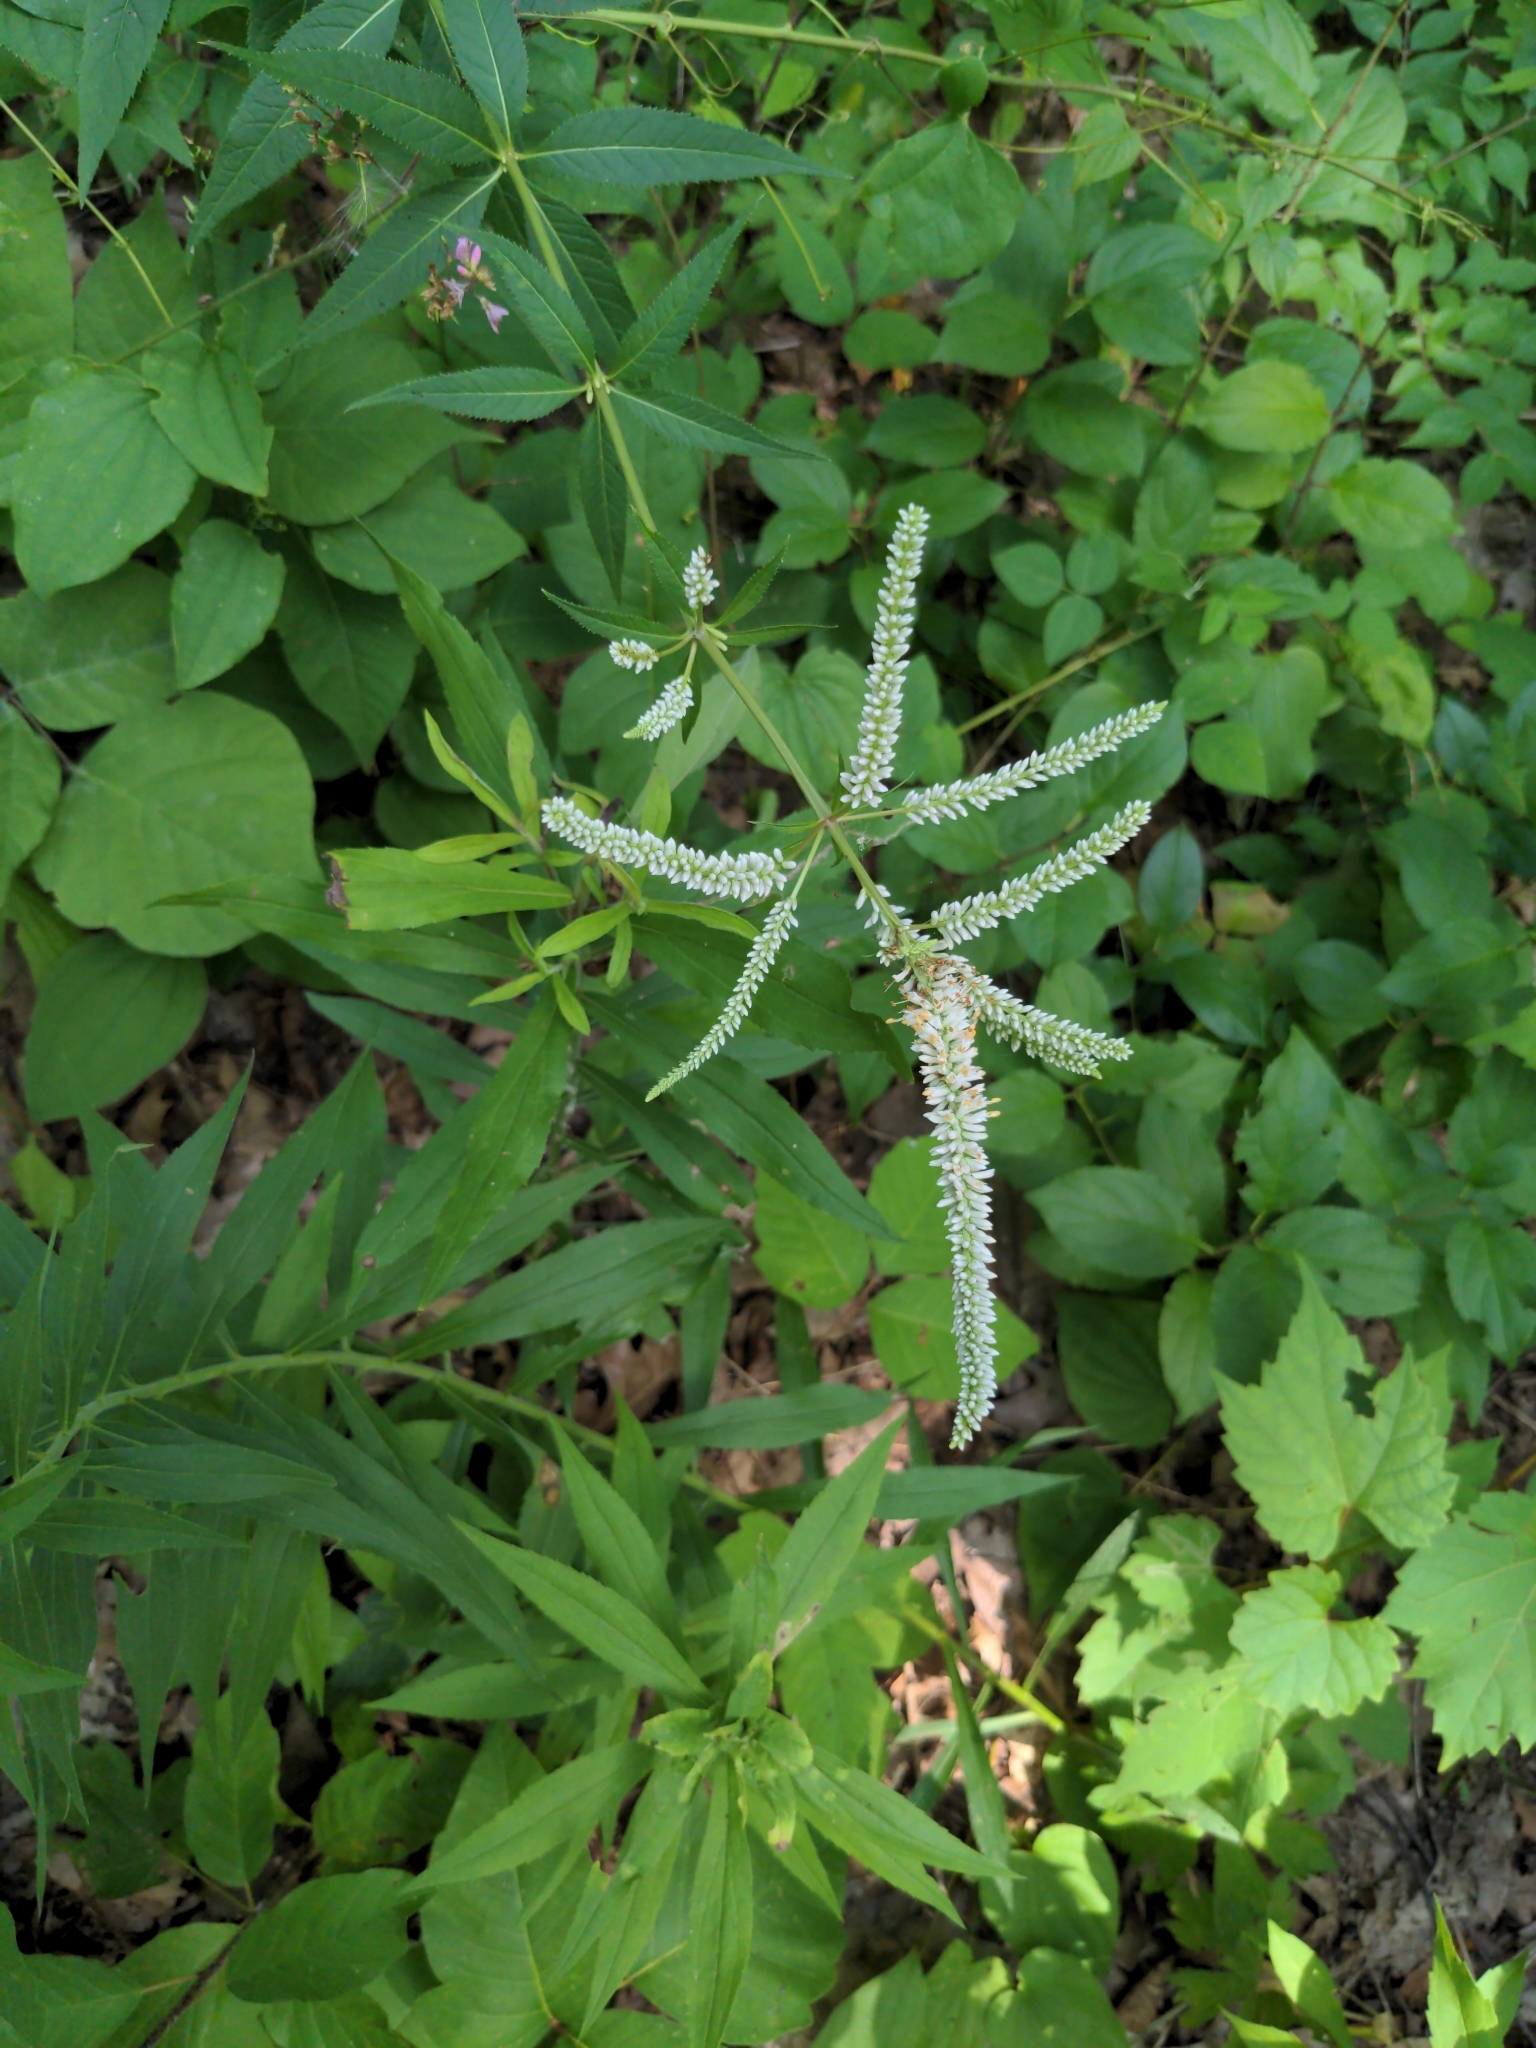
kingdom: Plantae
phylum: Tracheophyta
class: Magnoliopsida
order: Lamiales
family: Plantaginaceae
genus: Veronicastrum
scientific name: Veronicastrum virginicum
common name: Blackroot
